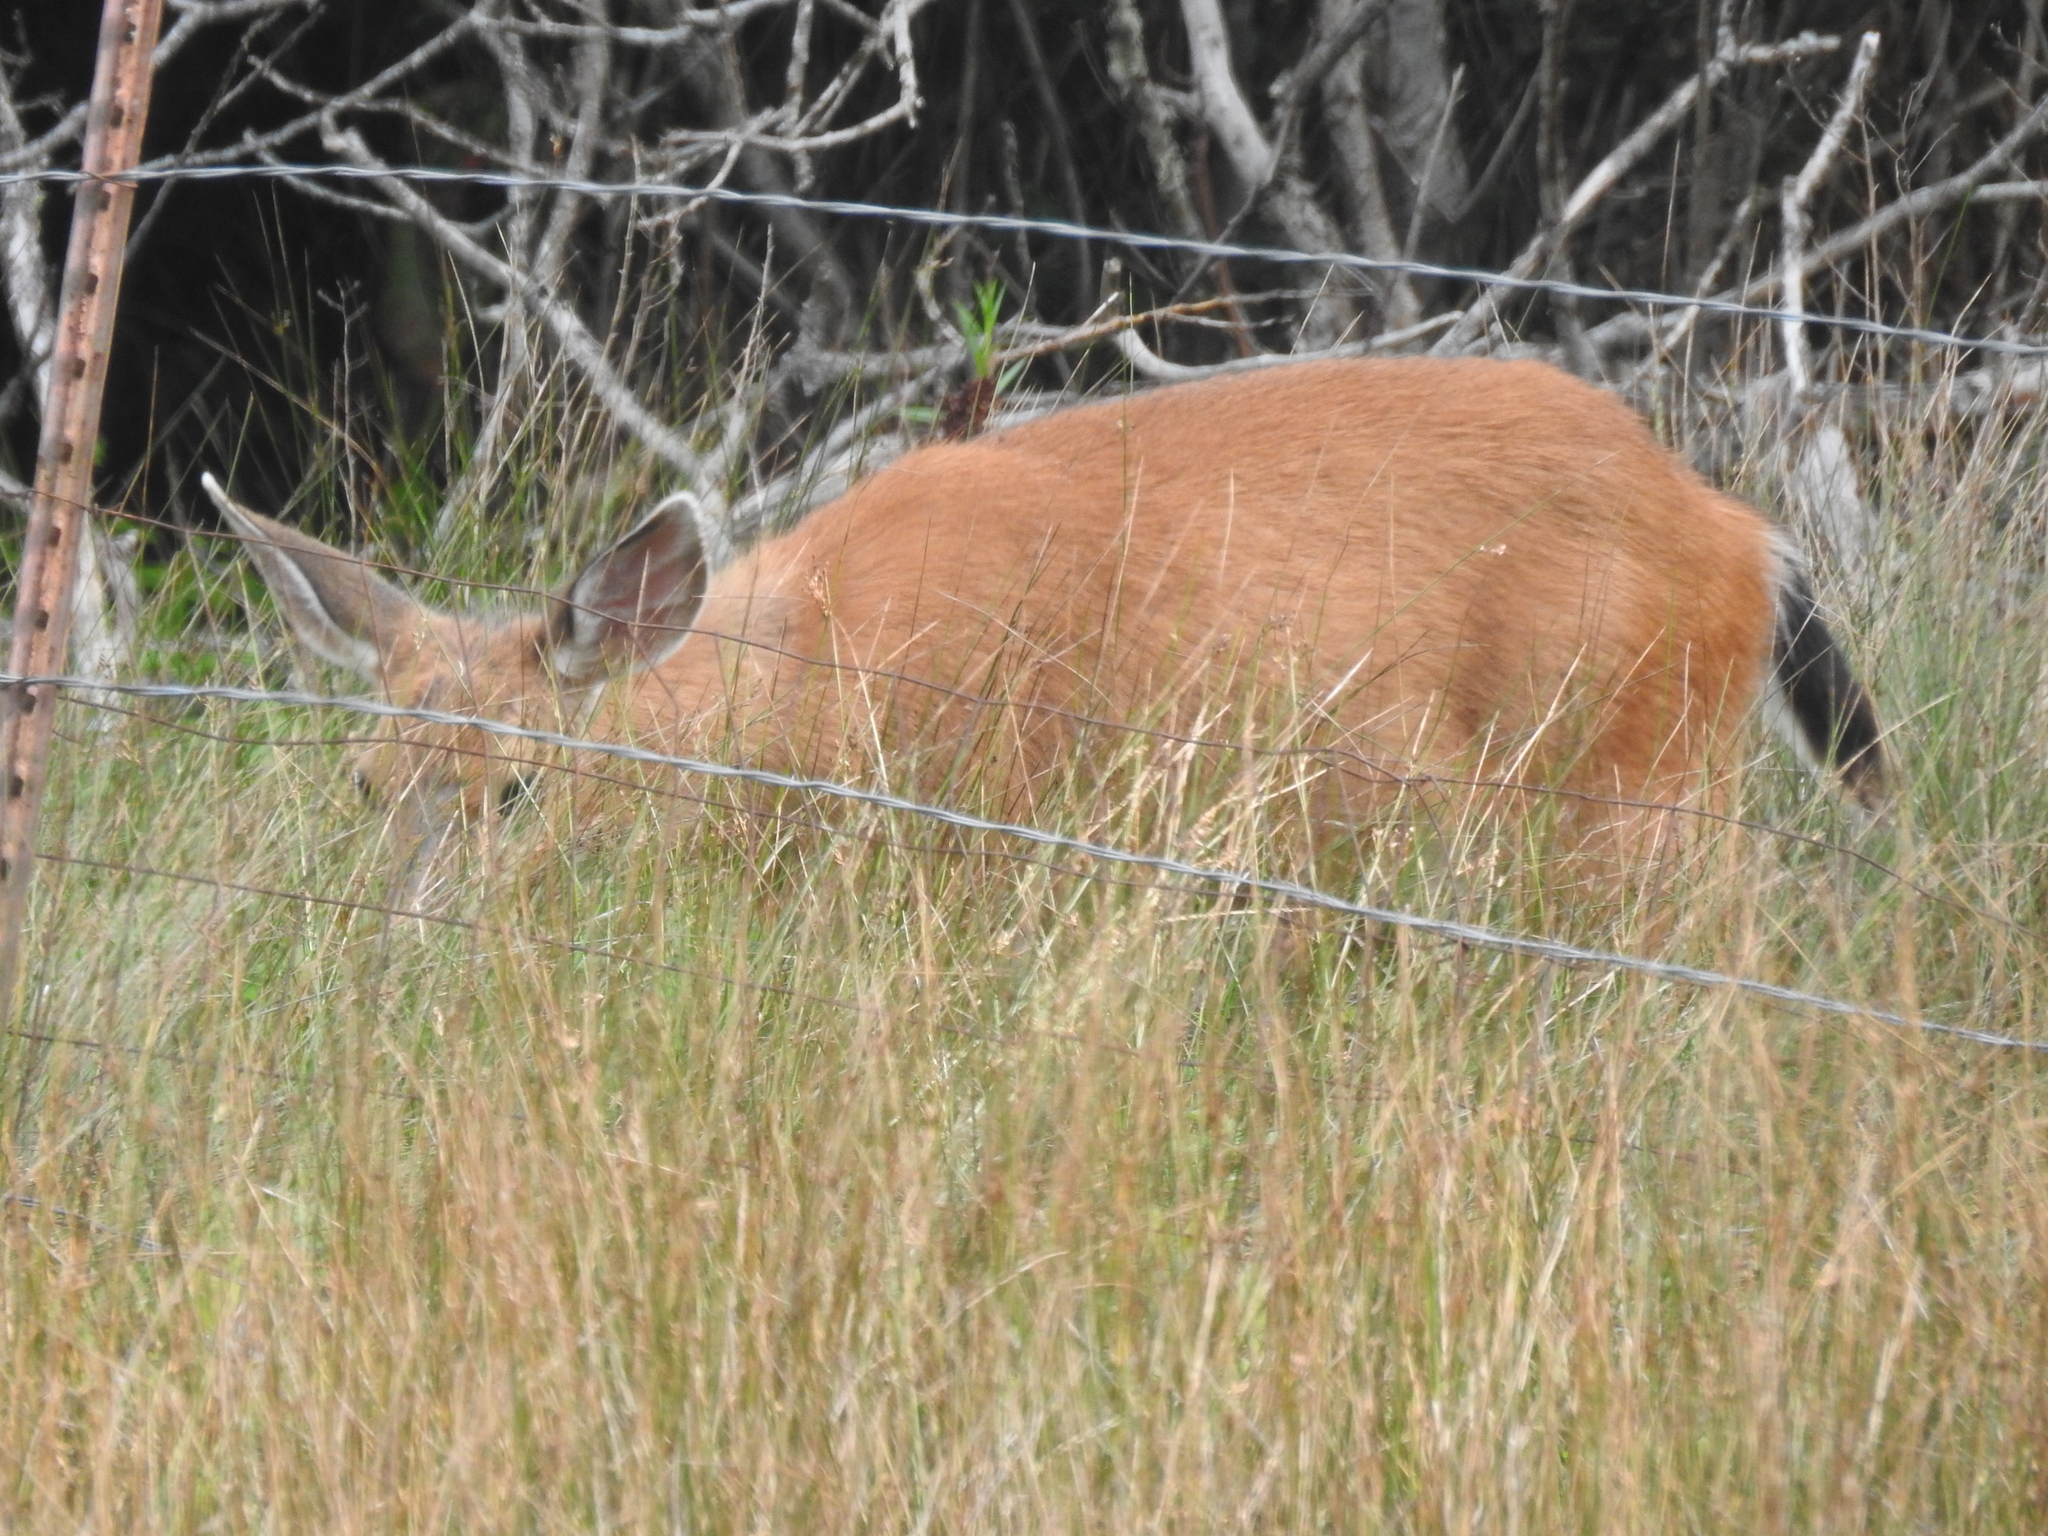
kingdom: Animalia
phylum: Chordata
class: Mammalia
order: Artiodactyla
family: Cervidae
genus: Odocoileus
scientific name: Odocoileus hemionus
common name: Mule deer
